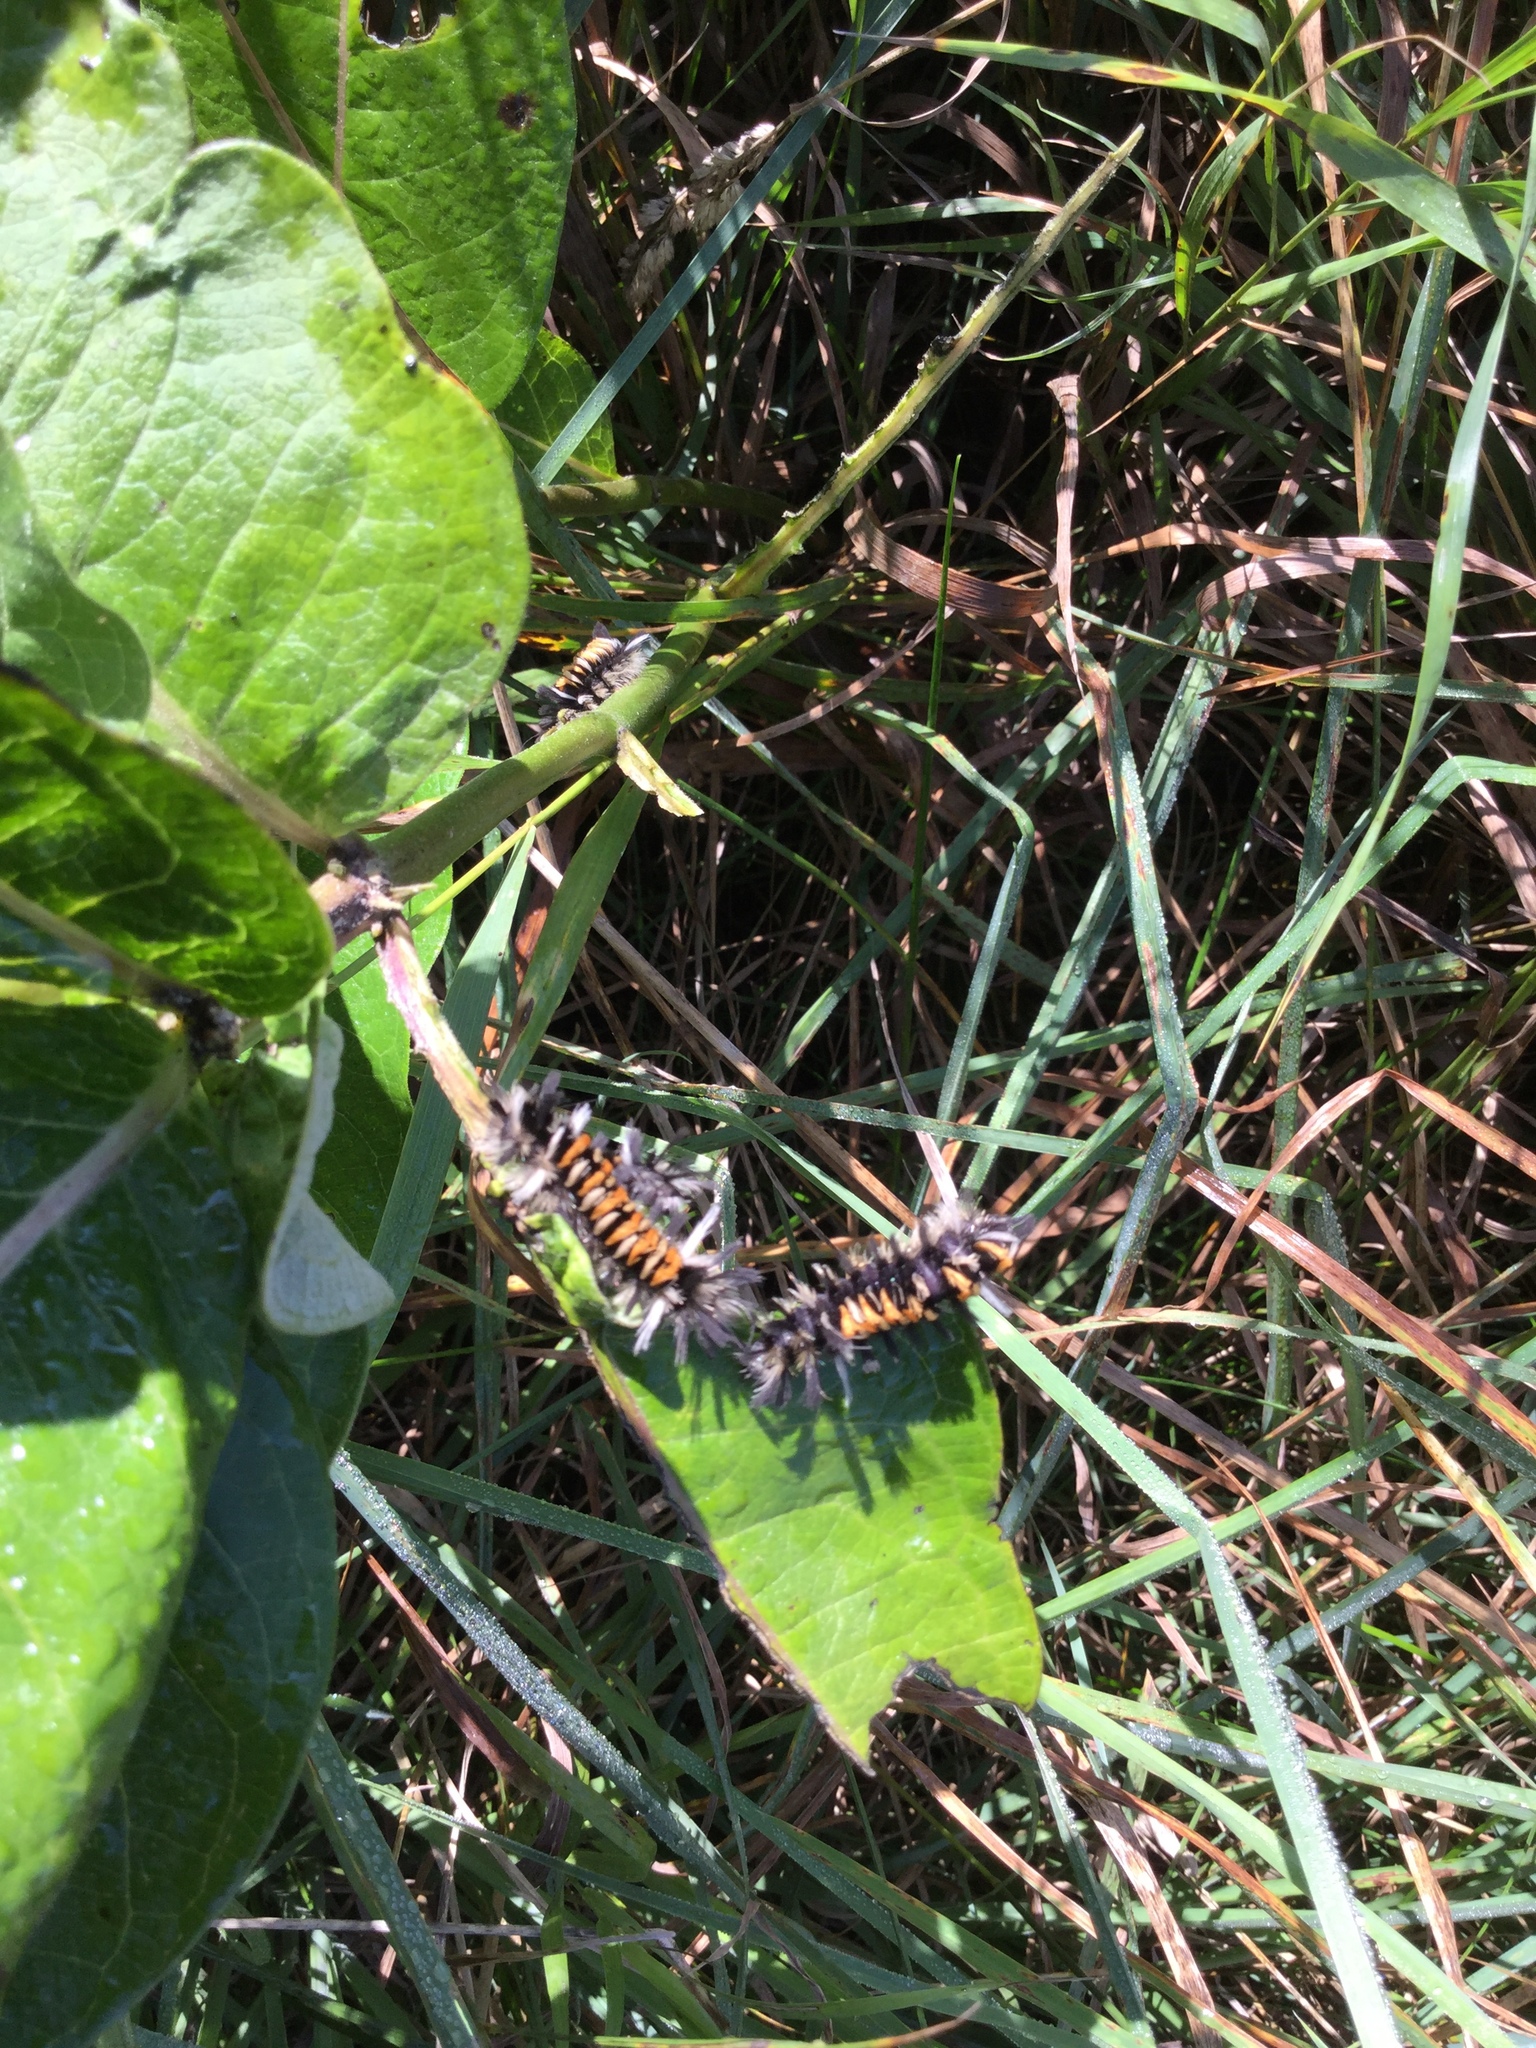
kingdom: Animalia
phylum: Arthropoda
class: Insecta
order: Lepidoptera
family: Erebidae
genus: Euchaetes
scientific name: Euchaetes egle
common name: Milkweed tussock moth
